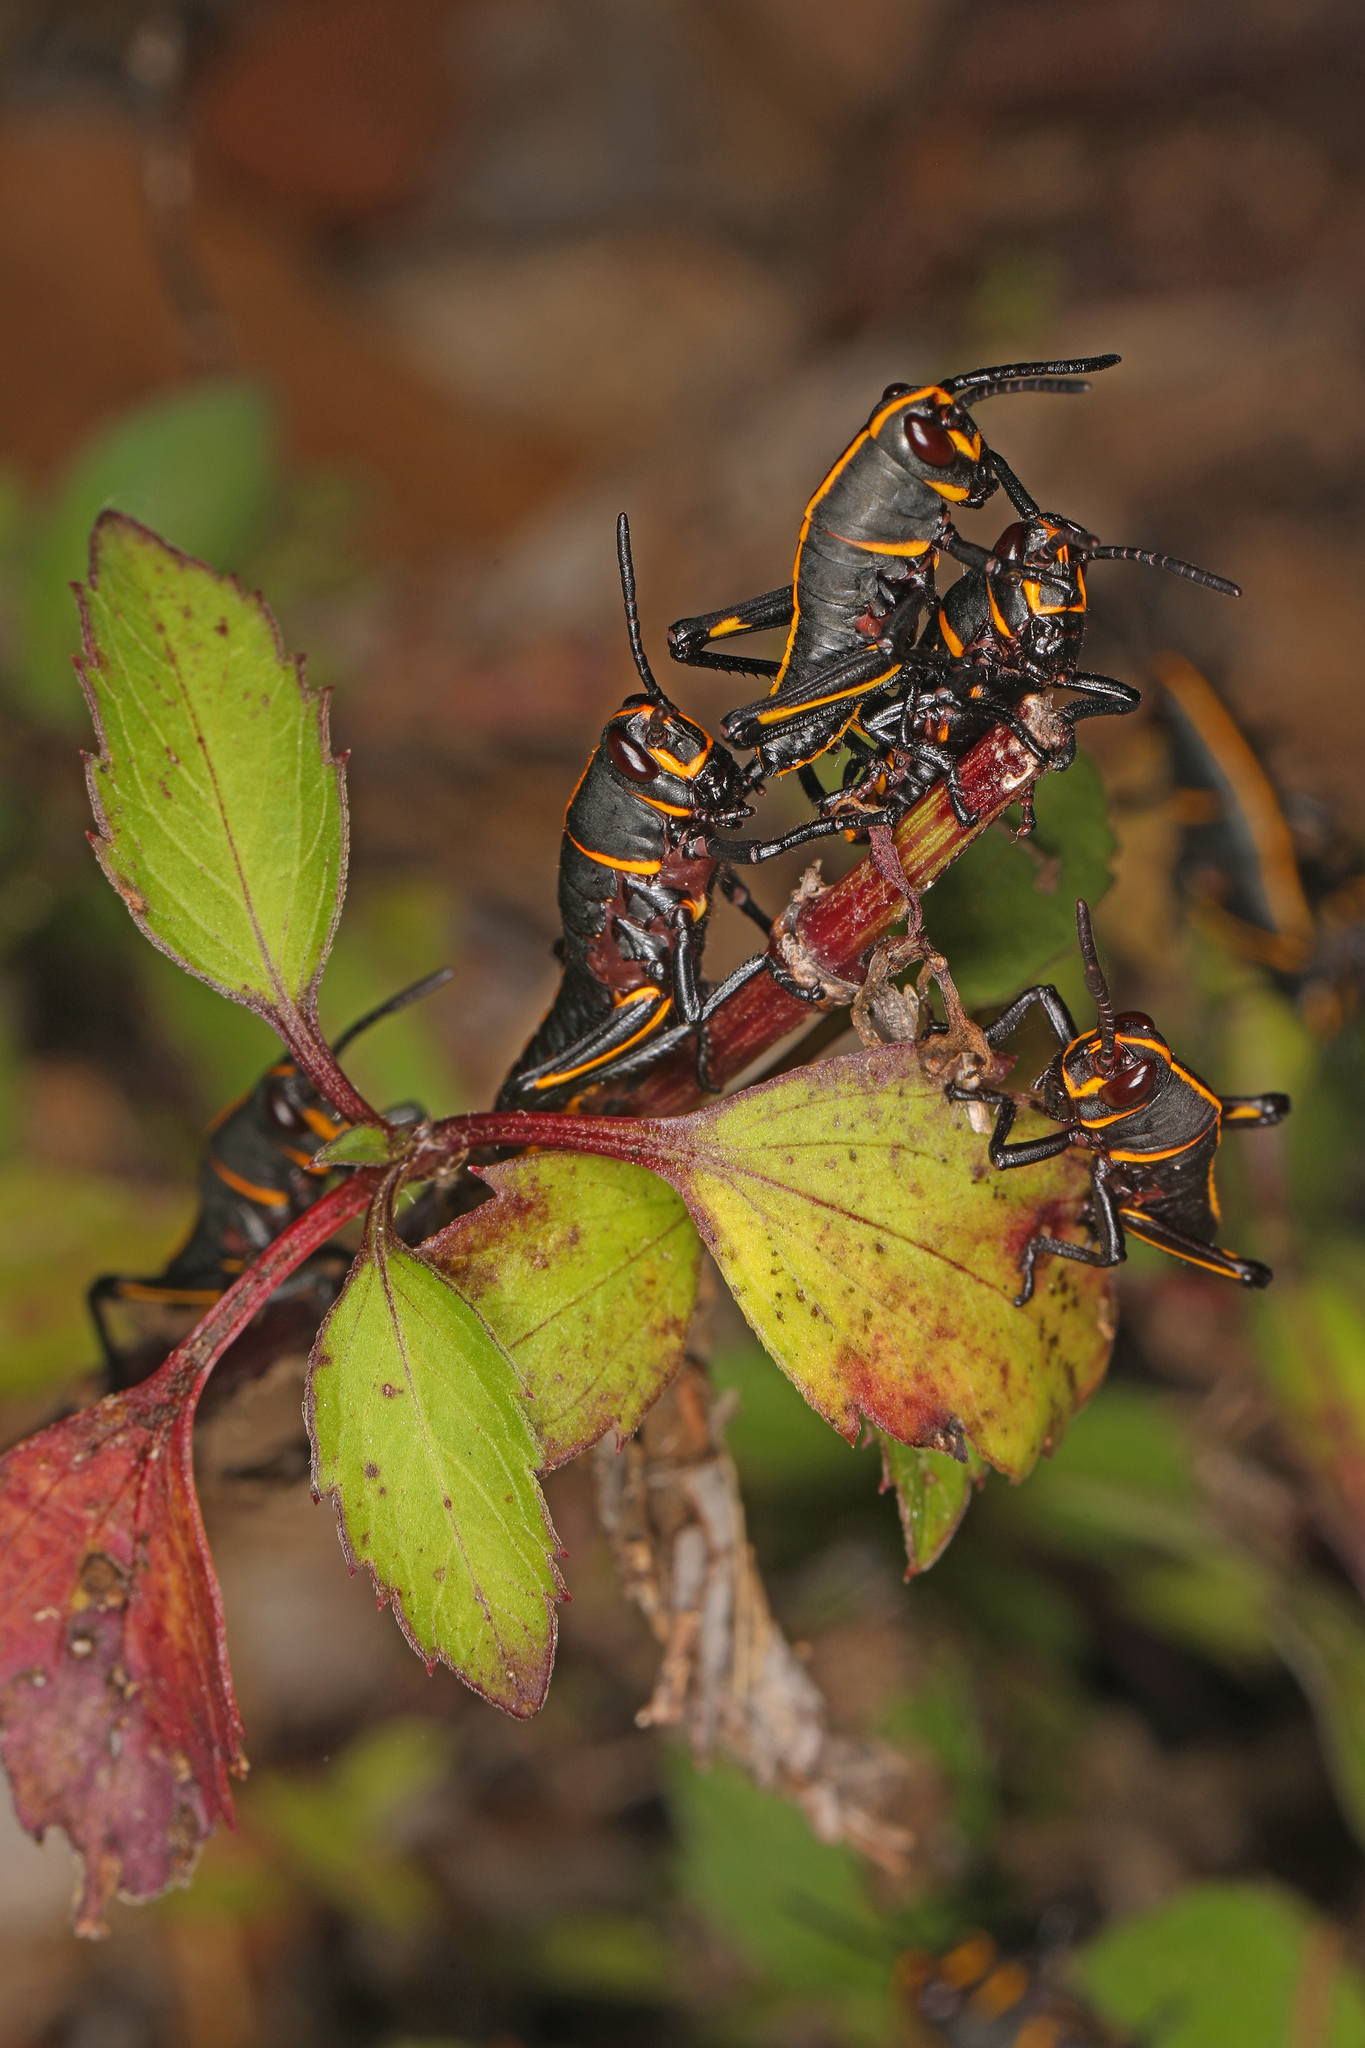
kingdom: Animalia
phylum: Arthropoda
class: Insecta
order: Orthoptera
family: Romaleidae
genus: Romalea
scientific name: Romalea microptera
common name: Eastern lubber grasshopper
